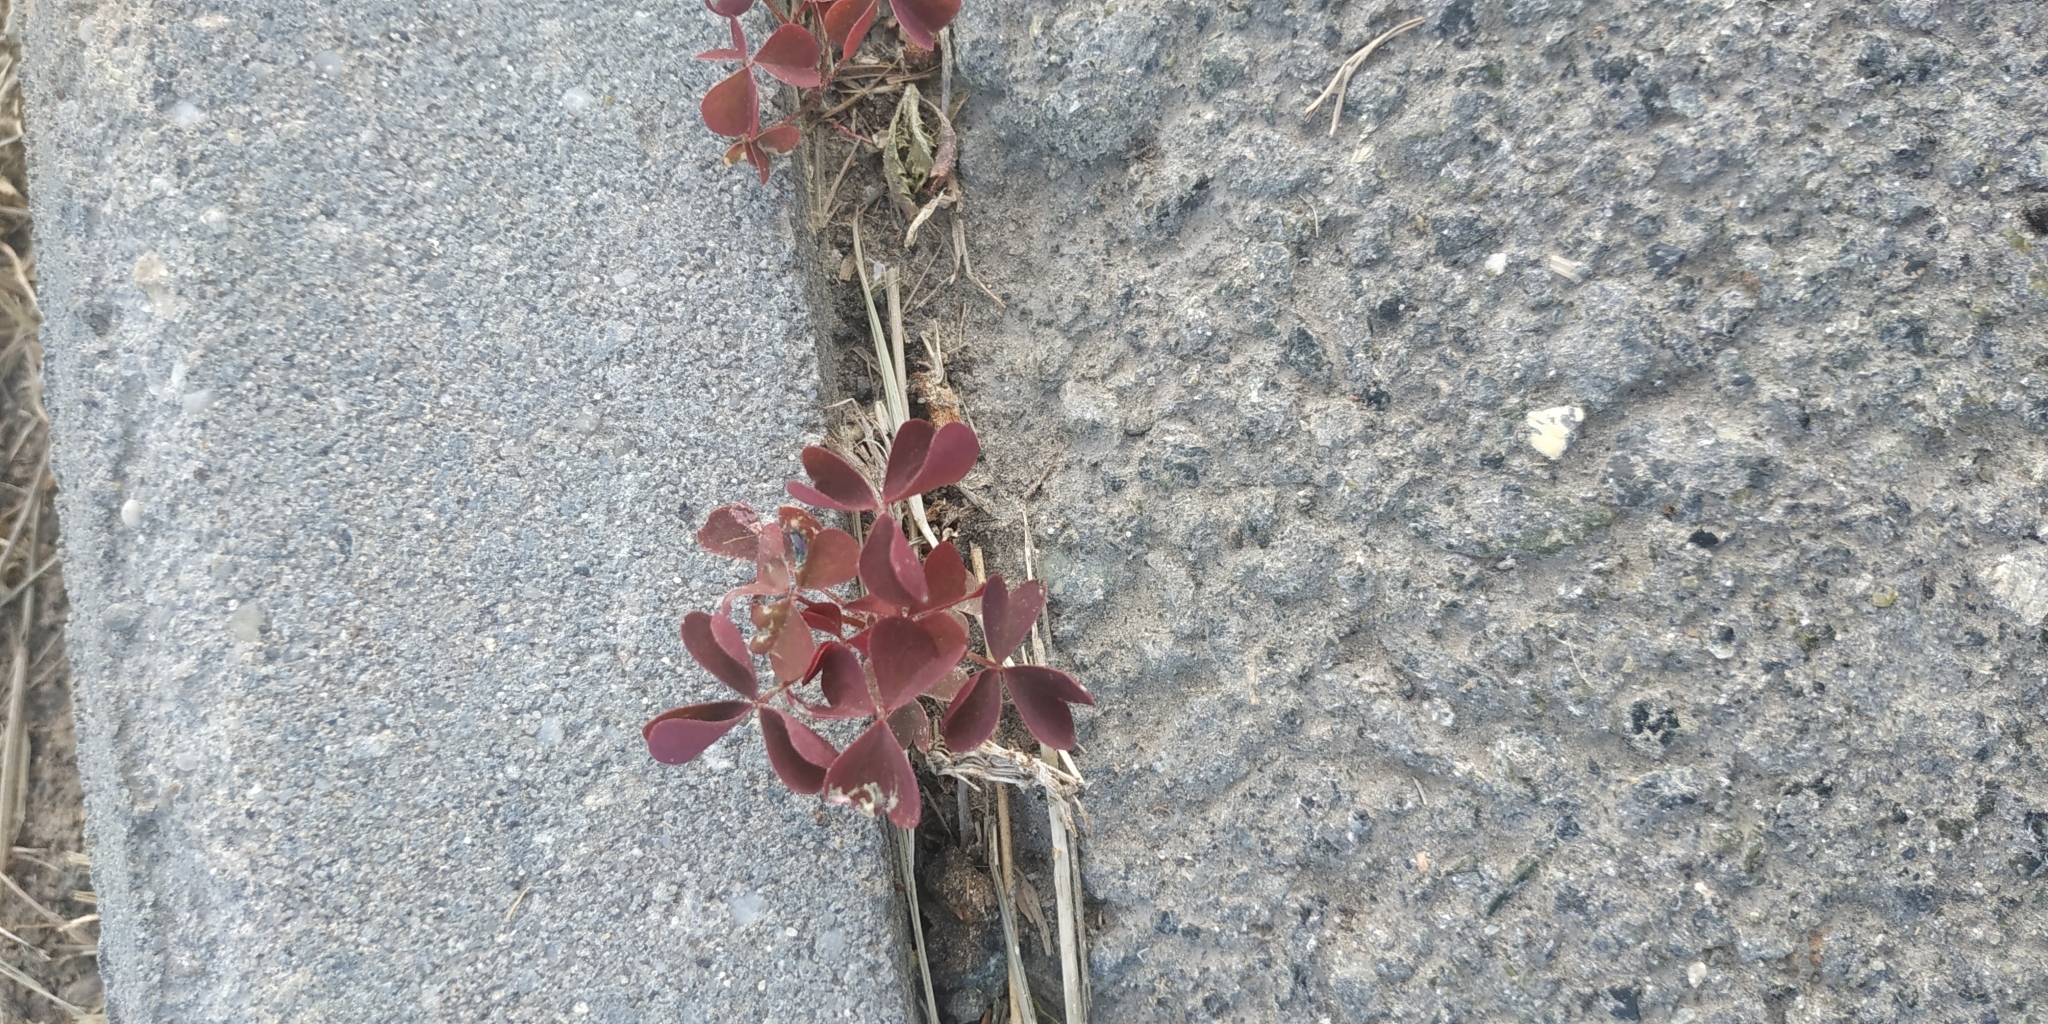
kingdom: Plantae
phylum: Tracheophyta
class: Magnoliopsida
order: Oxalidales
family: Oxalidaceae
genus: Oxalis
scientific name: Oxalis stricta
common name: Upright yellow-sorrel
